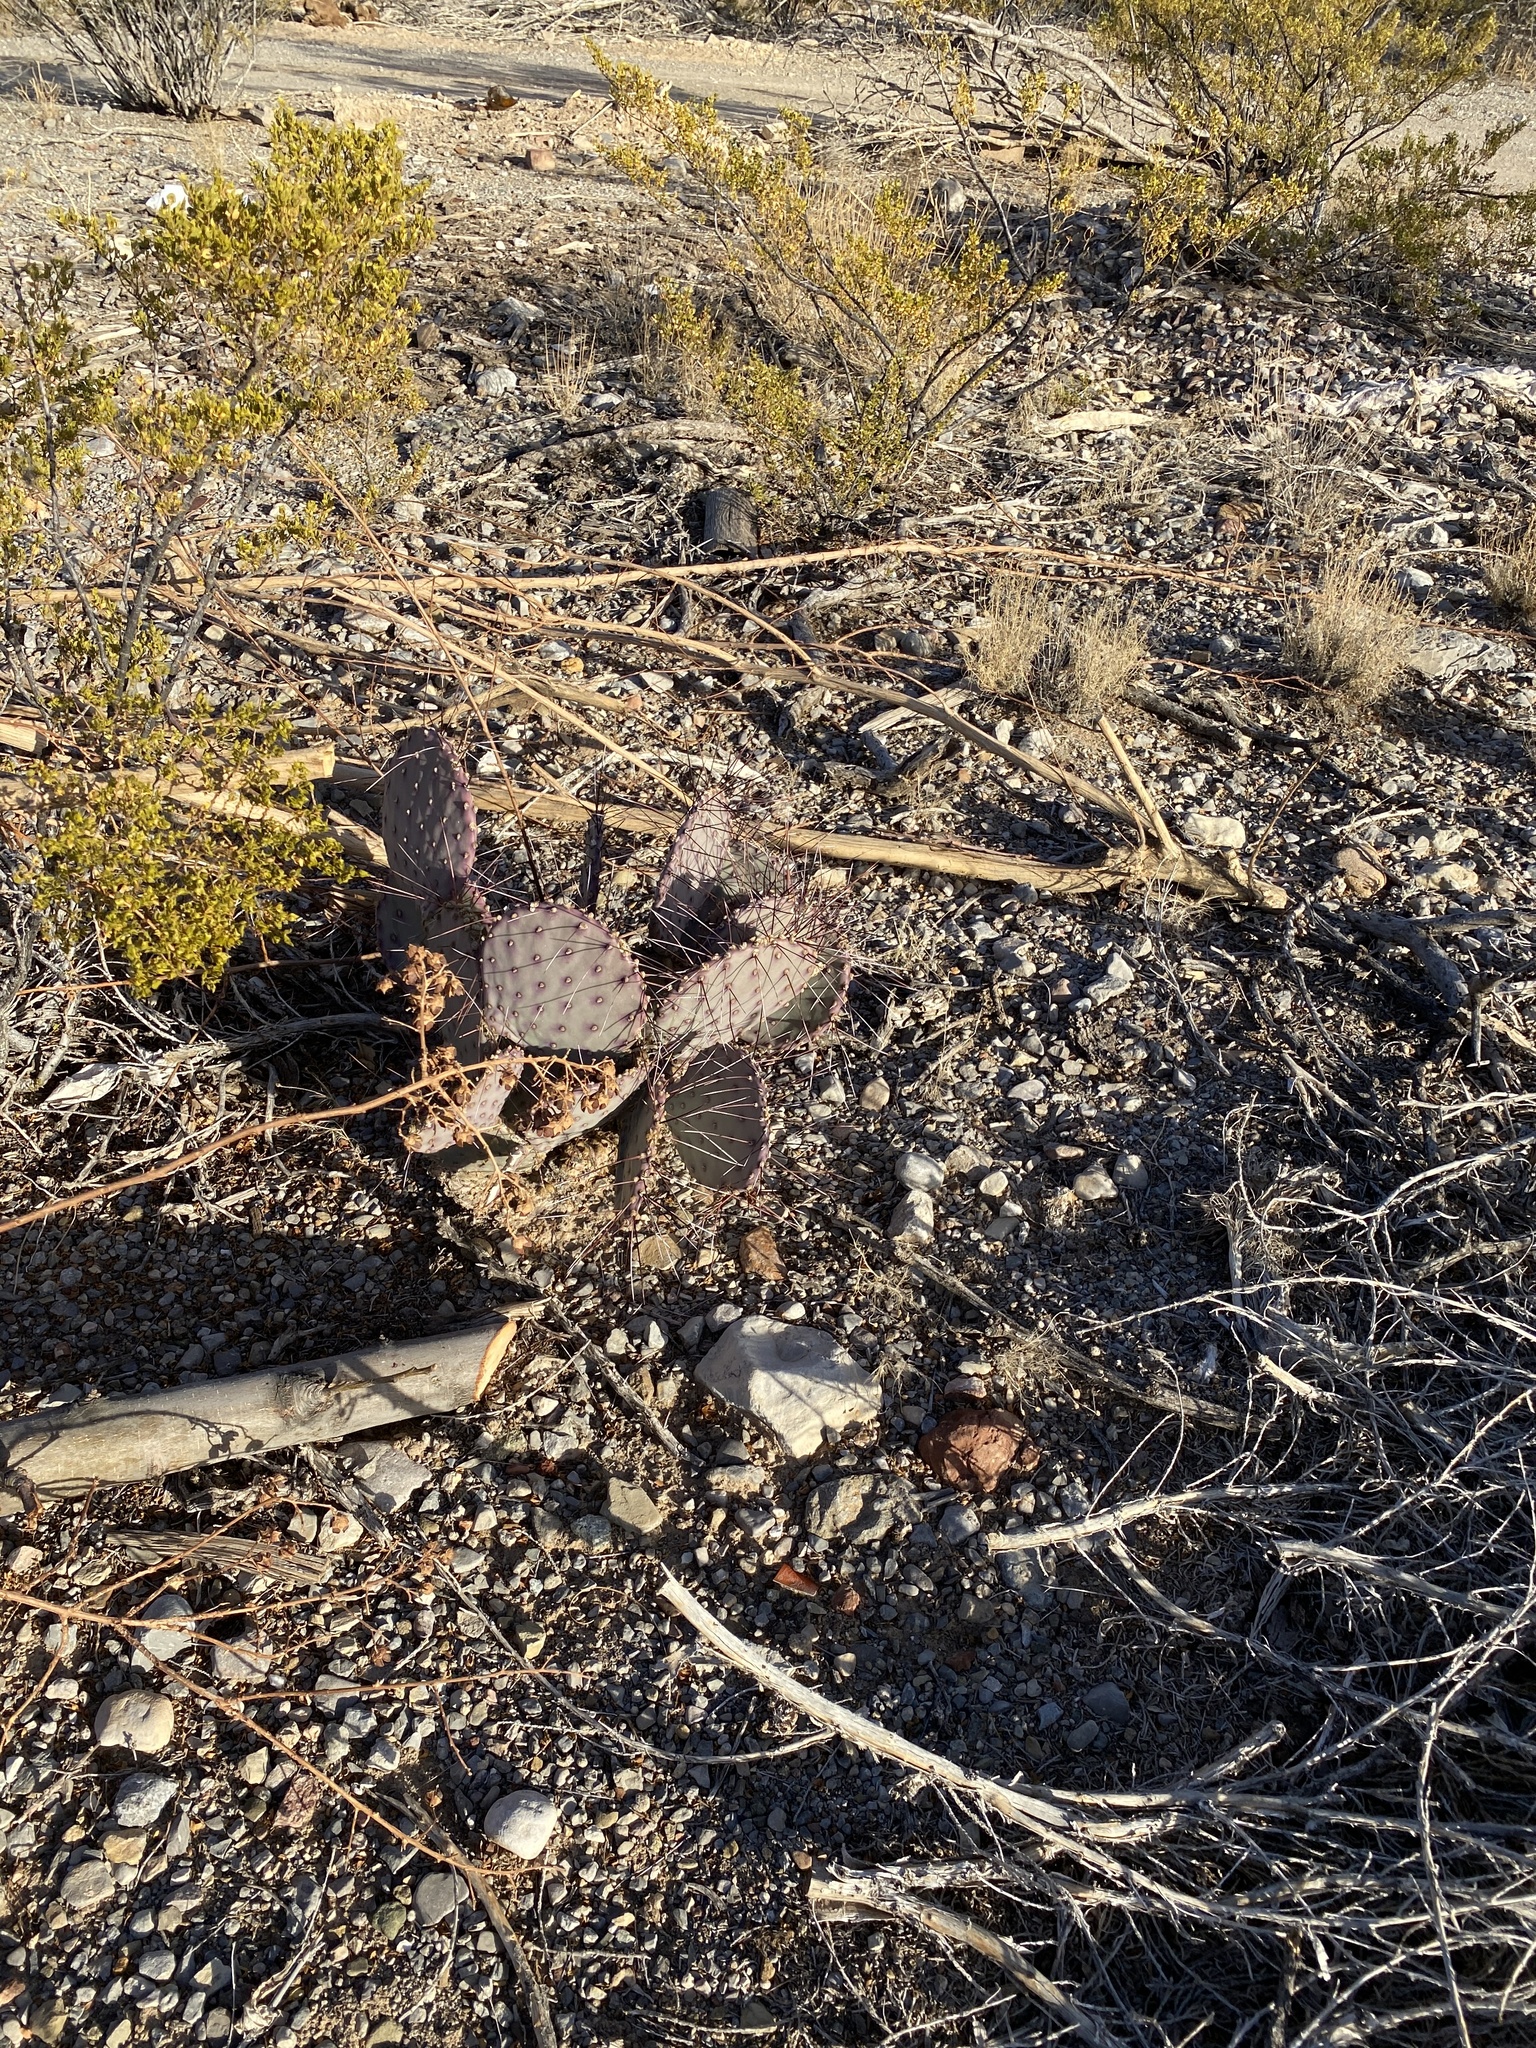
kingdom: Plantae
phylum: Tracheophyta
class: Magnoliopsida
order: Caryophyllales
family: Cactaceae
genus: Opuntia
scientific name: Opuntia macrocentra
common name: Purple prickly-pear
